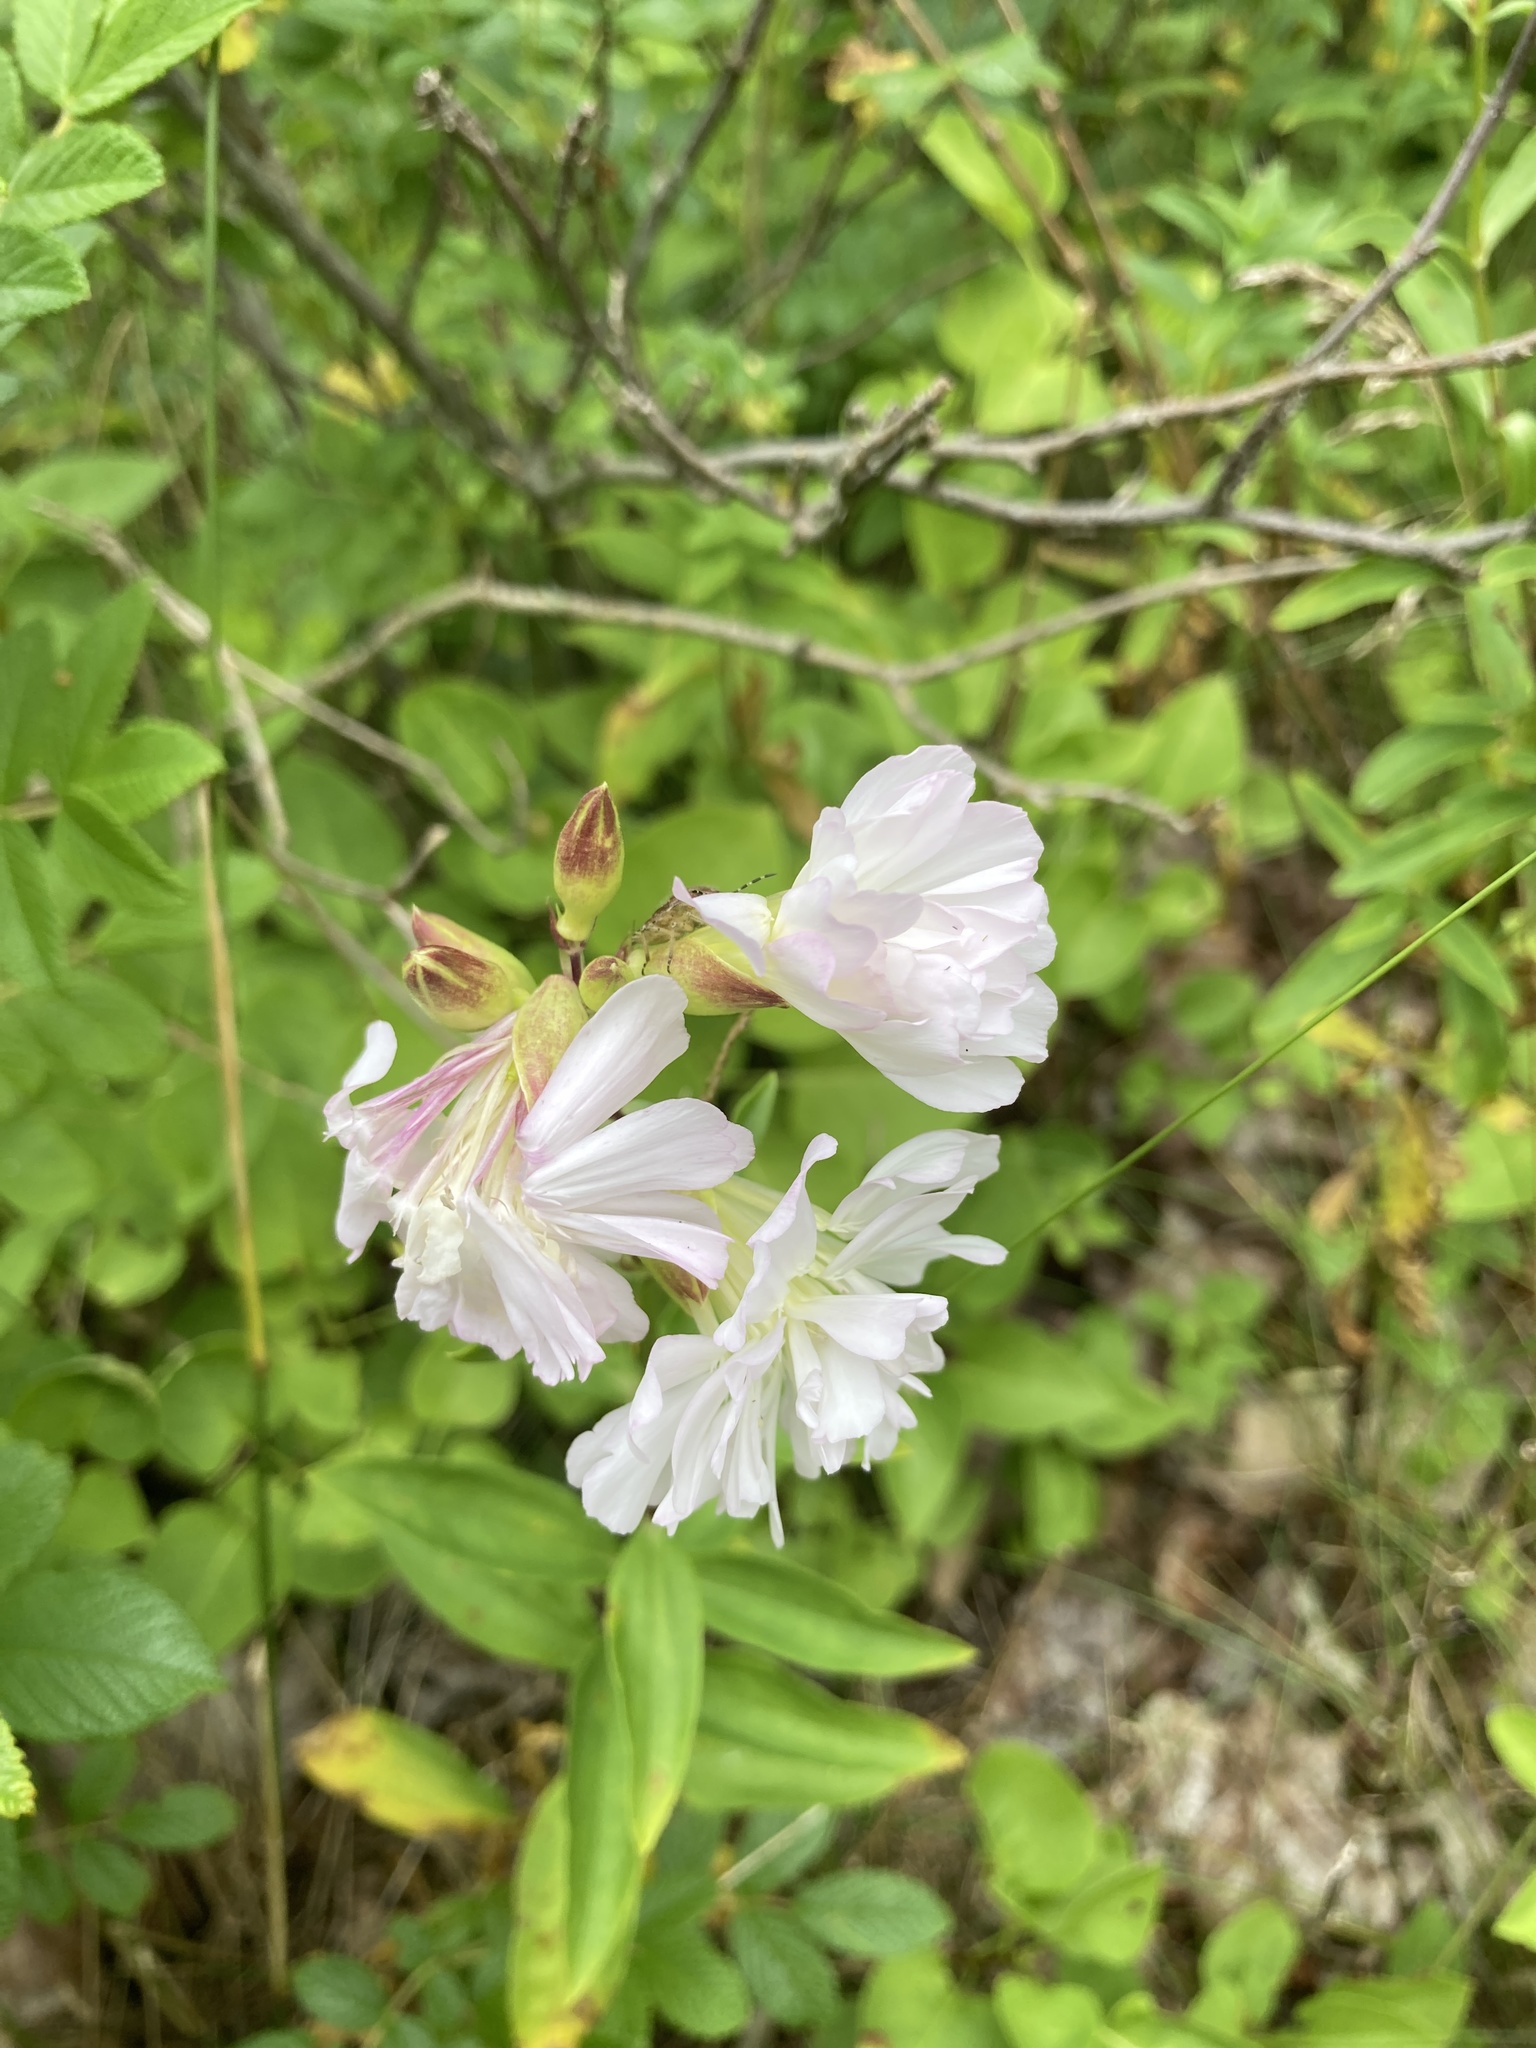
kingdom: Plantae
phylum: Tracheophyta
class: Magnoliopsida
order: Caryophyllales
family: Caryophyllaceae
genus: Saponaria
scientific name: Saponaria officinalis
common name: Soapwort
